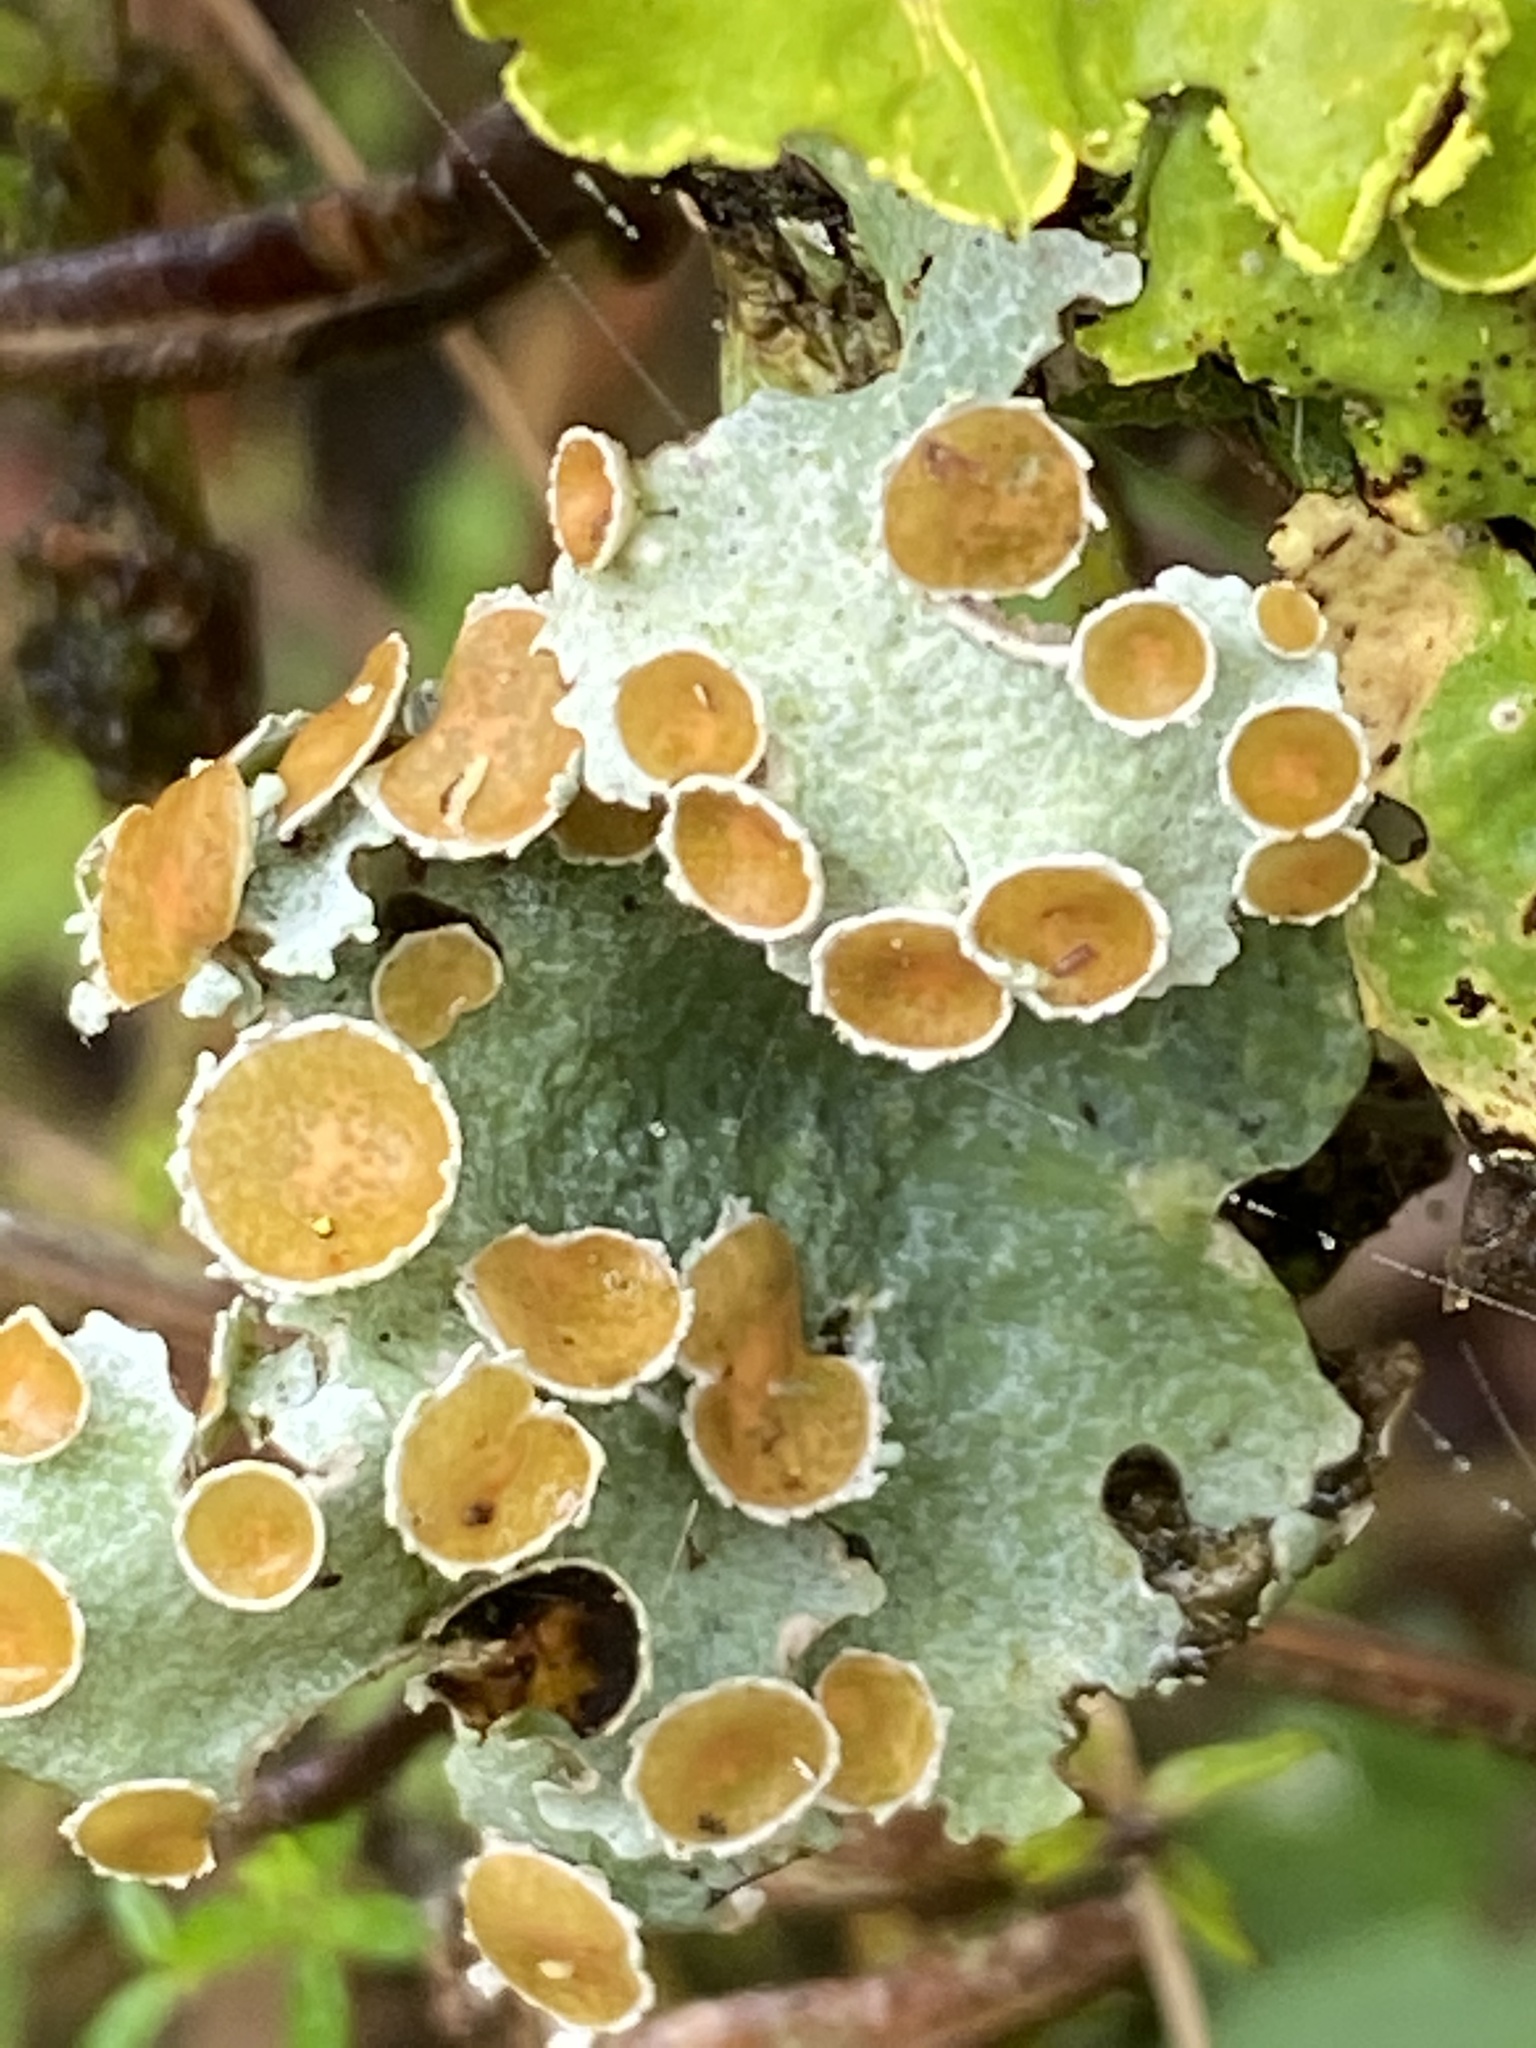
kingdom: Fungi
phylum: Ascomycota
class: Lecanoromycetes
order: Peltigerales
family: Lobariaceae
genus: Lobariella
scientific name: Lobariella pallida
